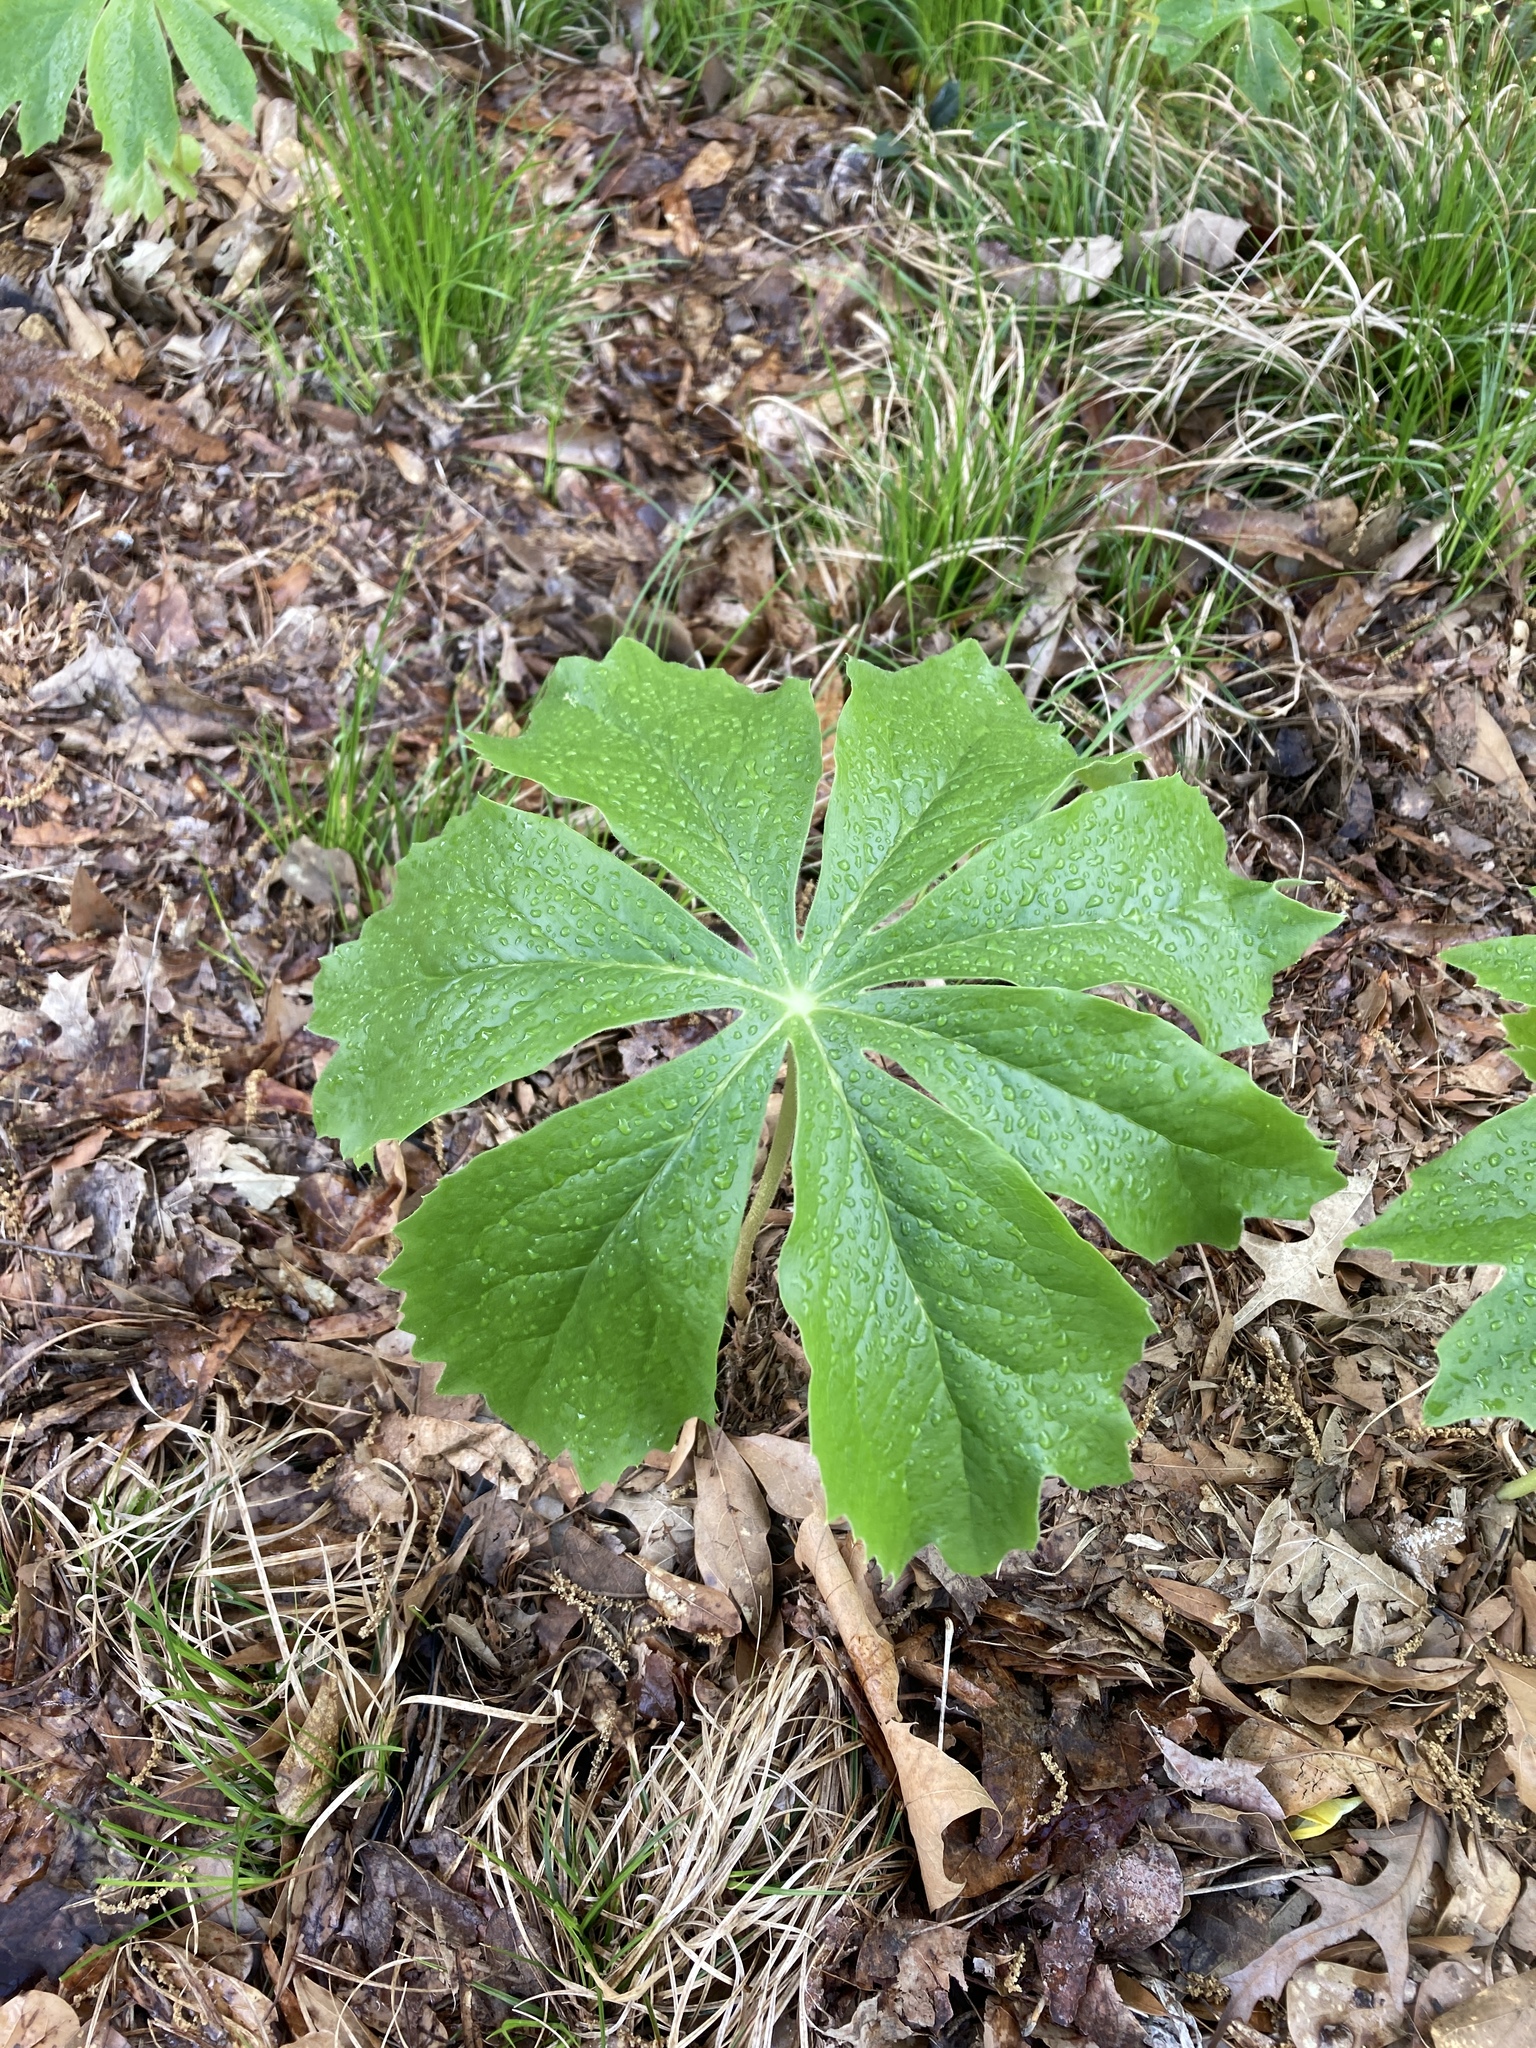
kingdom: Plantae
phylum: Tracheophyta
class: Magnoliopsida
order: Ranunculales
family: Berberidaceae
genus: Podophyllum
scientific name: Podophyllum peltatum
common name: Wild mandrake
